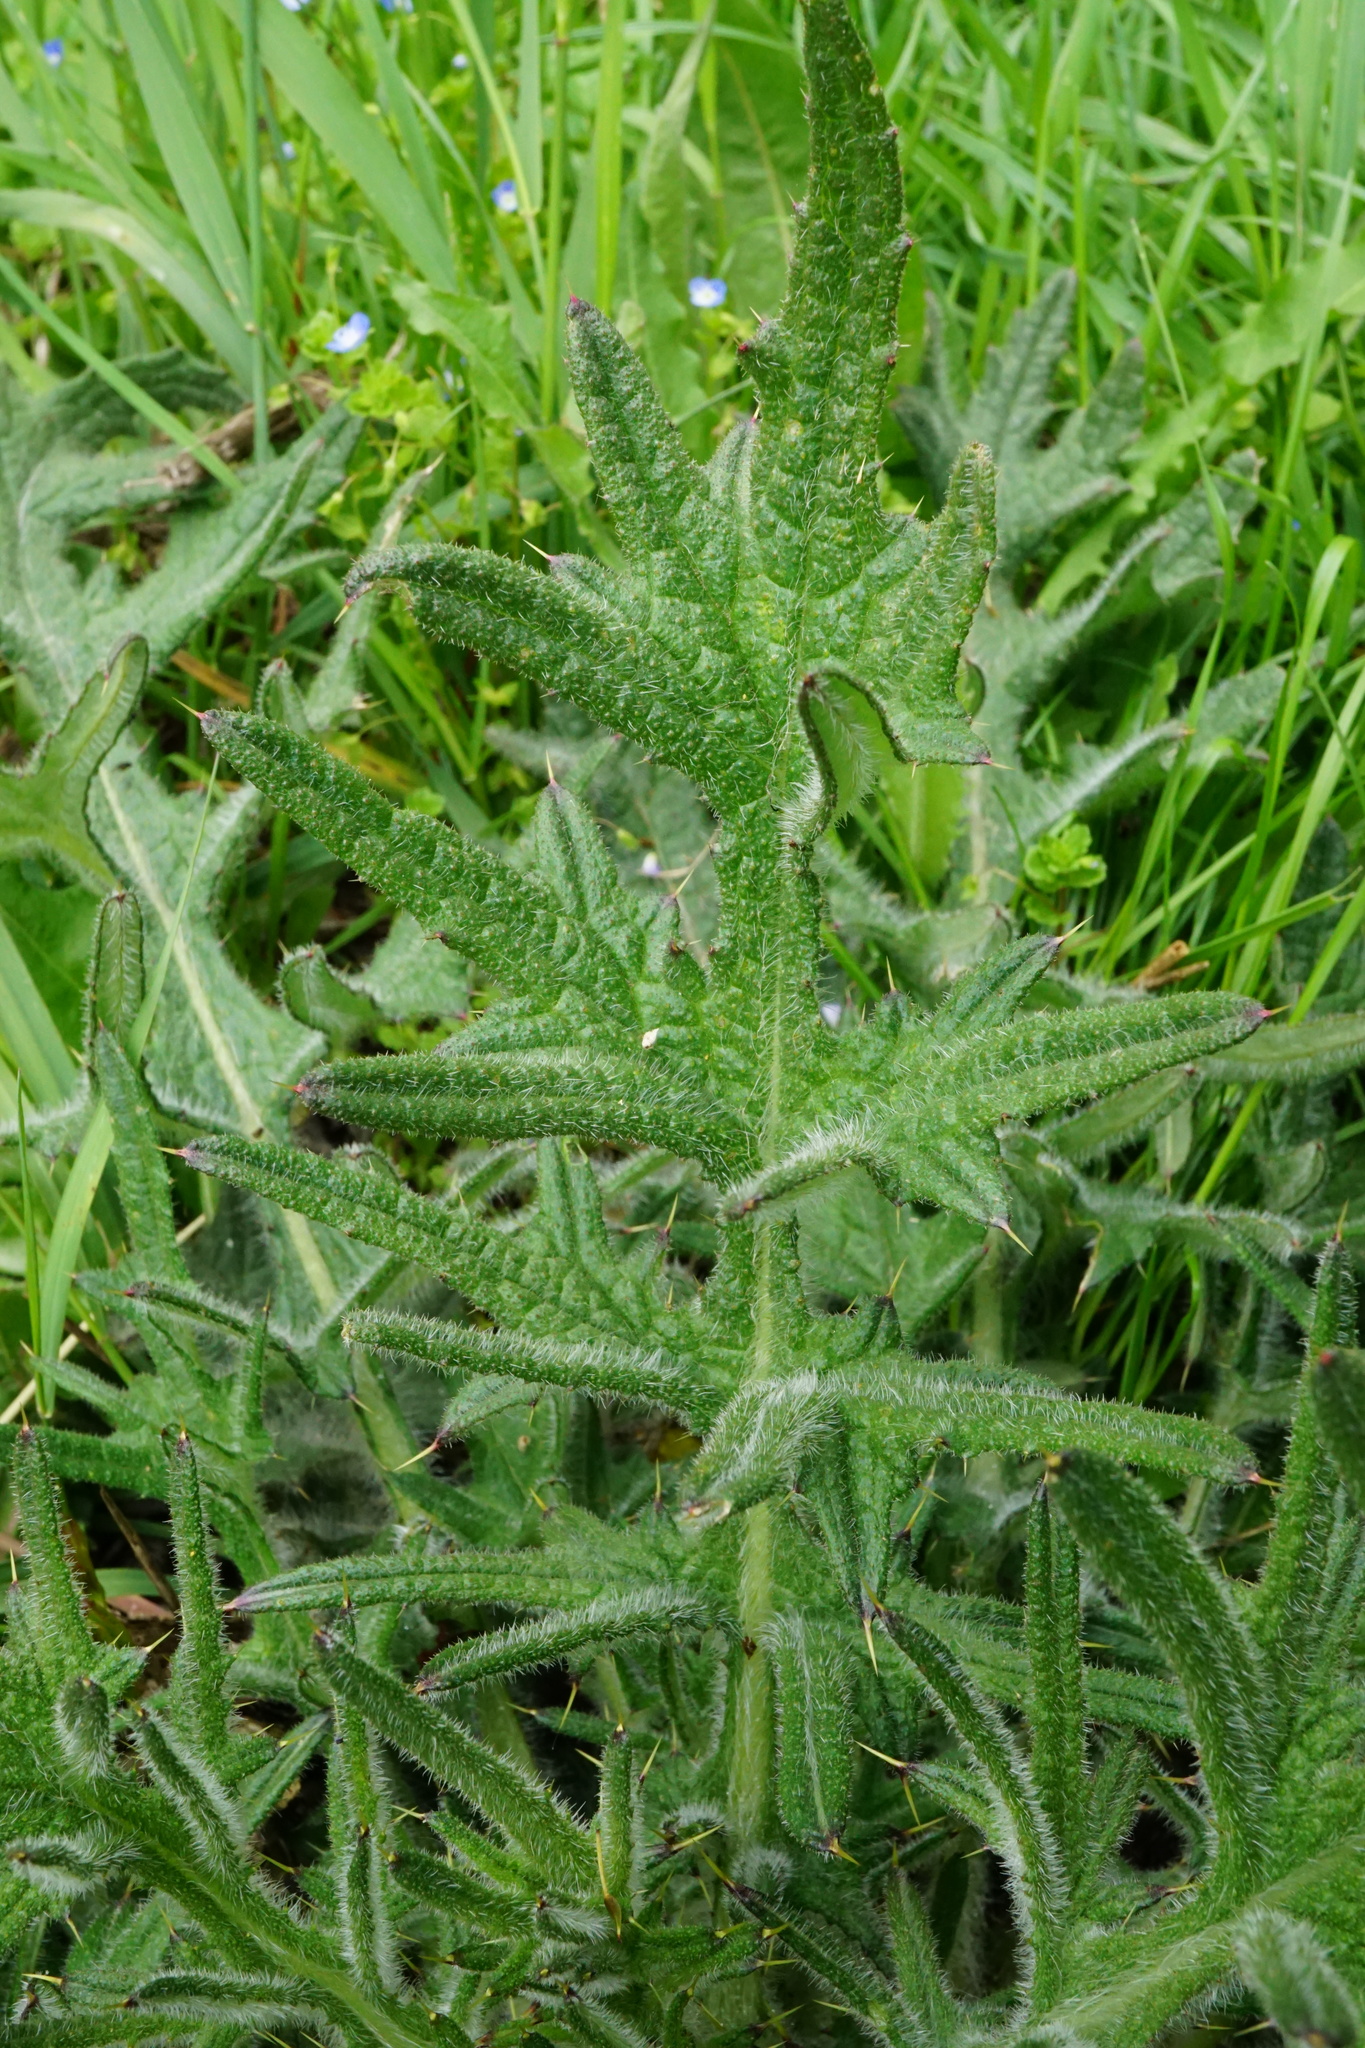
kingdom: Plantae
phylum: Tracheophyta
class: Magnoliopsida
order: Asterales
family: Asteraceae
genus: Cirsium
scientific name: Cirsium vulgare
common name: Bull thistle
